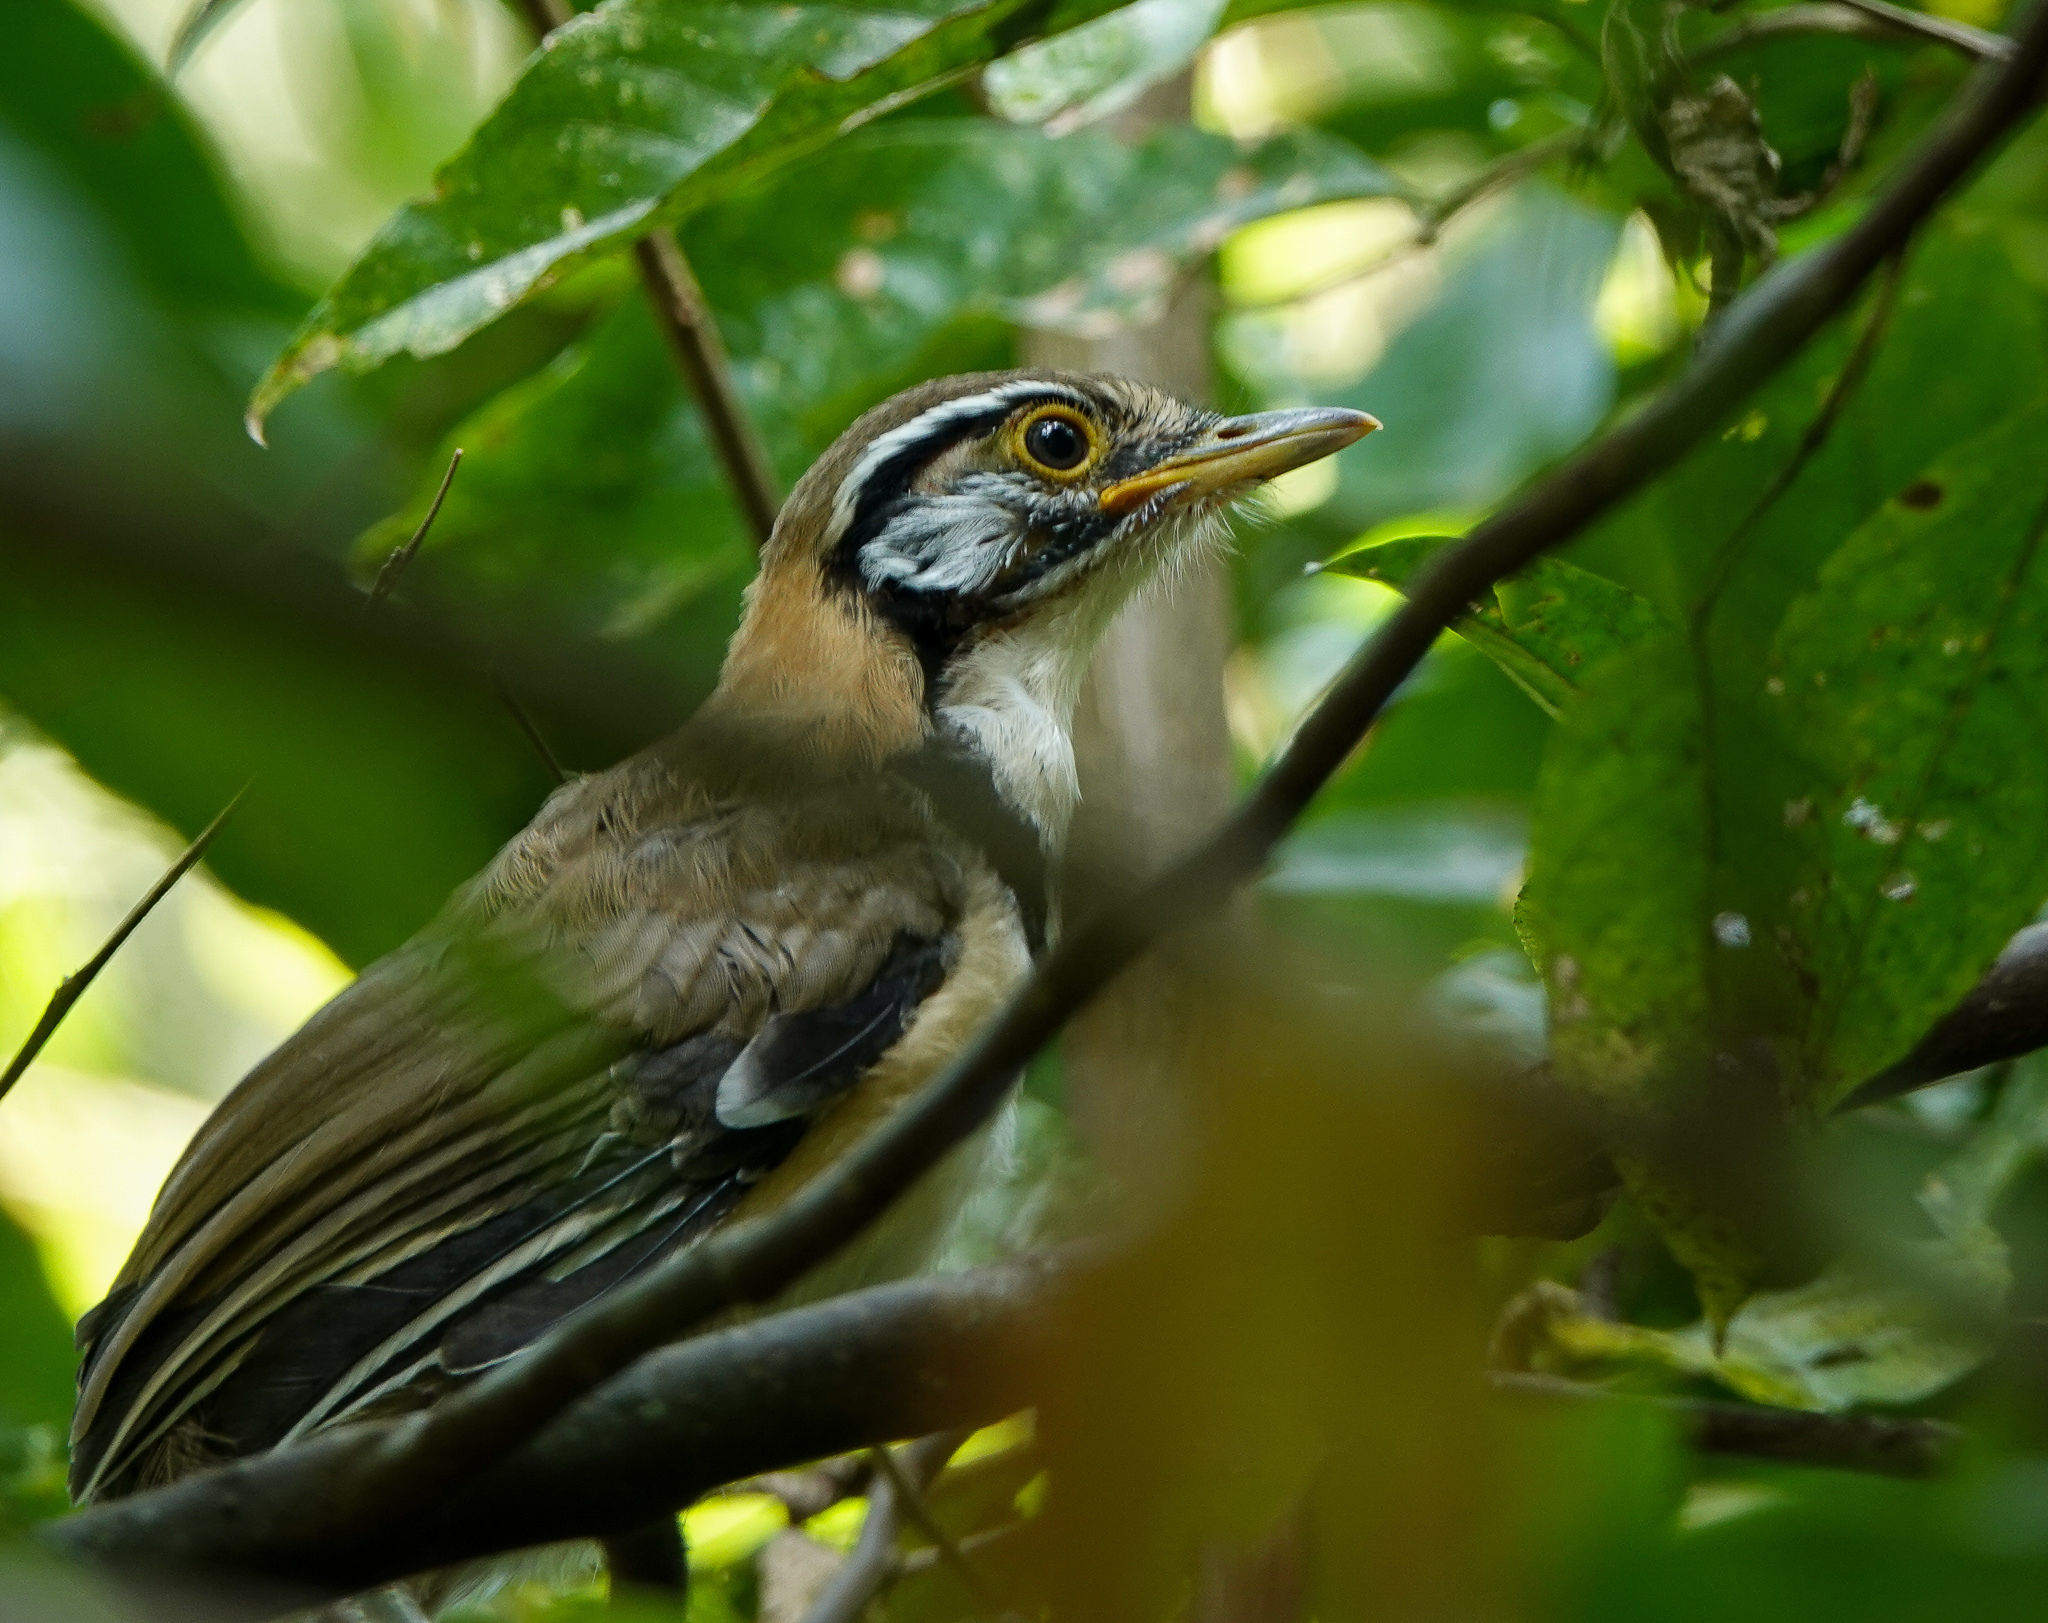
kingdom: Animalia
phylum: Chordata
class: Aves
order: Passeriformes
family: Leiothrichidae
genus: Garrulax
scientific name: Garrulax pectoralis
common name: Greater necklaced laughingthrush
